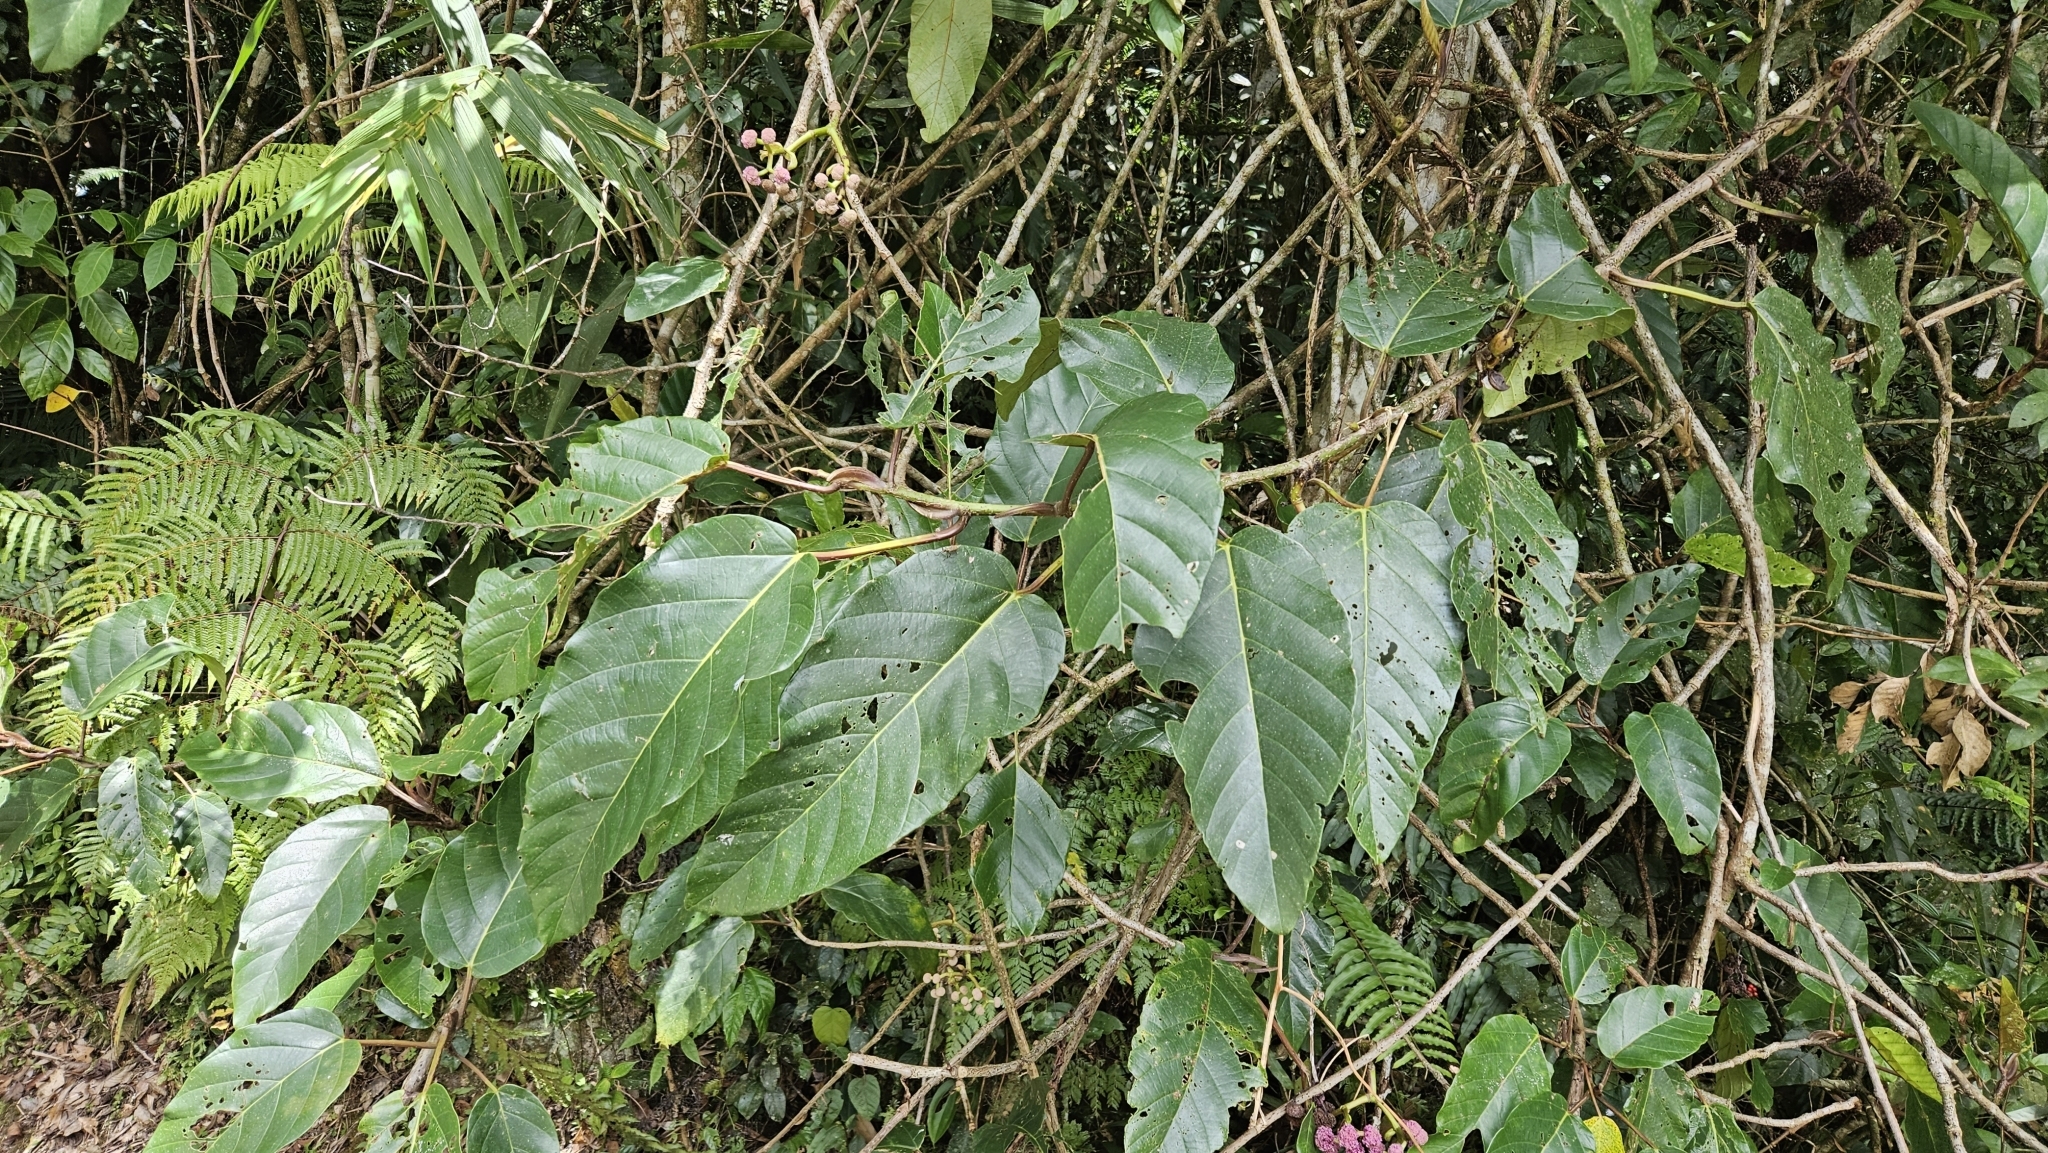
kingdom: Plantae
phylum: Tracheophyta
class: Magnoliopsida
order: Rosales
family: Urticaceae
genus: Poikilospermum
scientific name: Poikilospermum acuminatum
